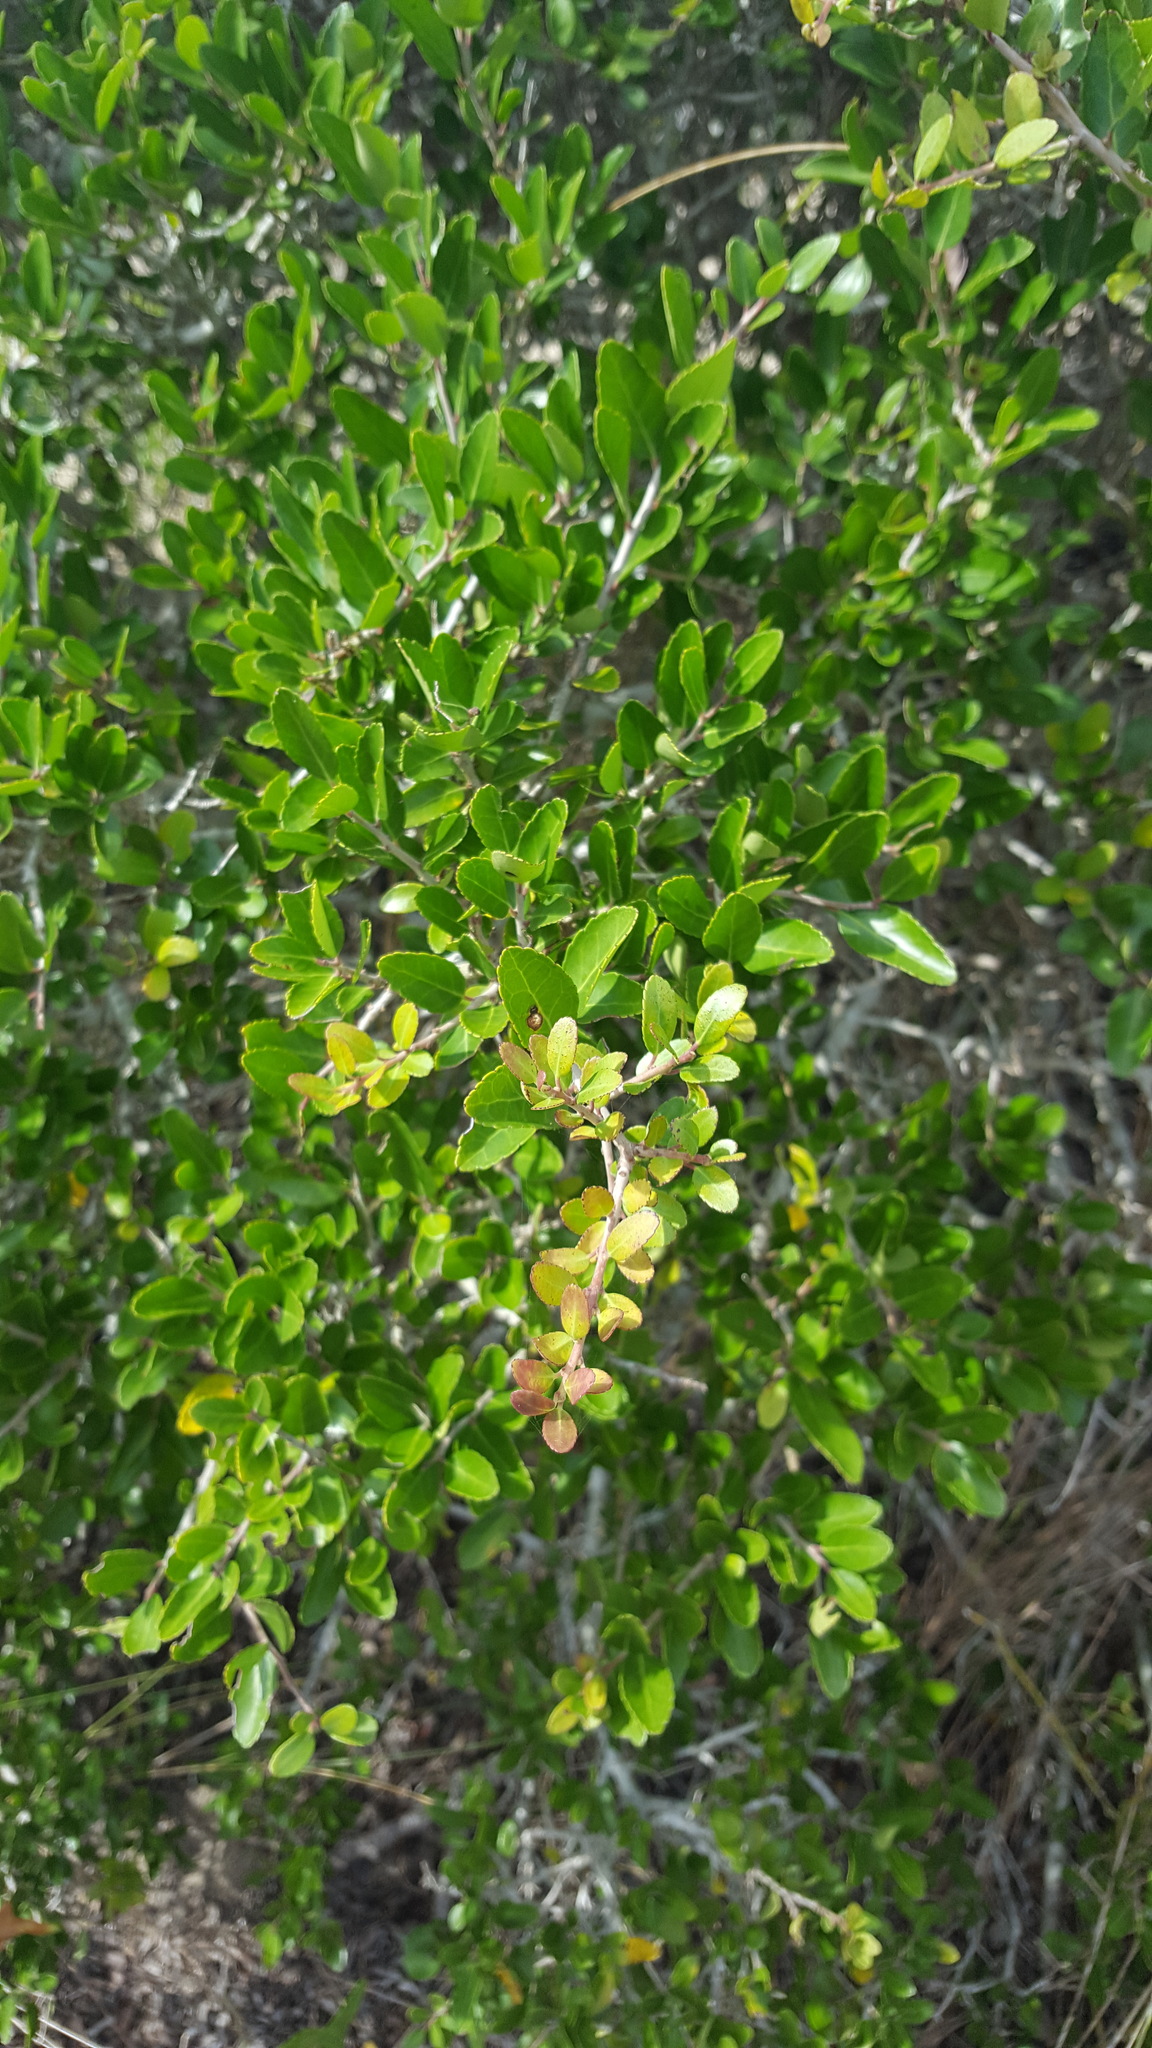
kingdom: Plantae
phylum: Tracheophyta
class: Magnoliopsida
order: Aquifoliales
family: Aquifoliaceae
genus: Ilex
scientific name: Ilex vomitoria
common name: Yaupon holly
